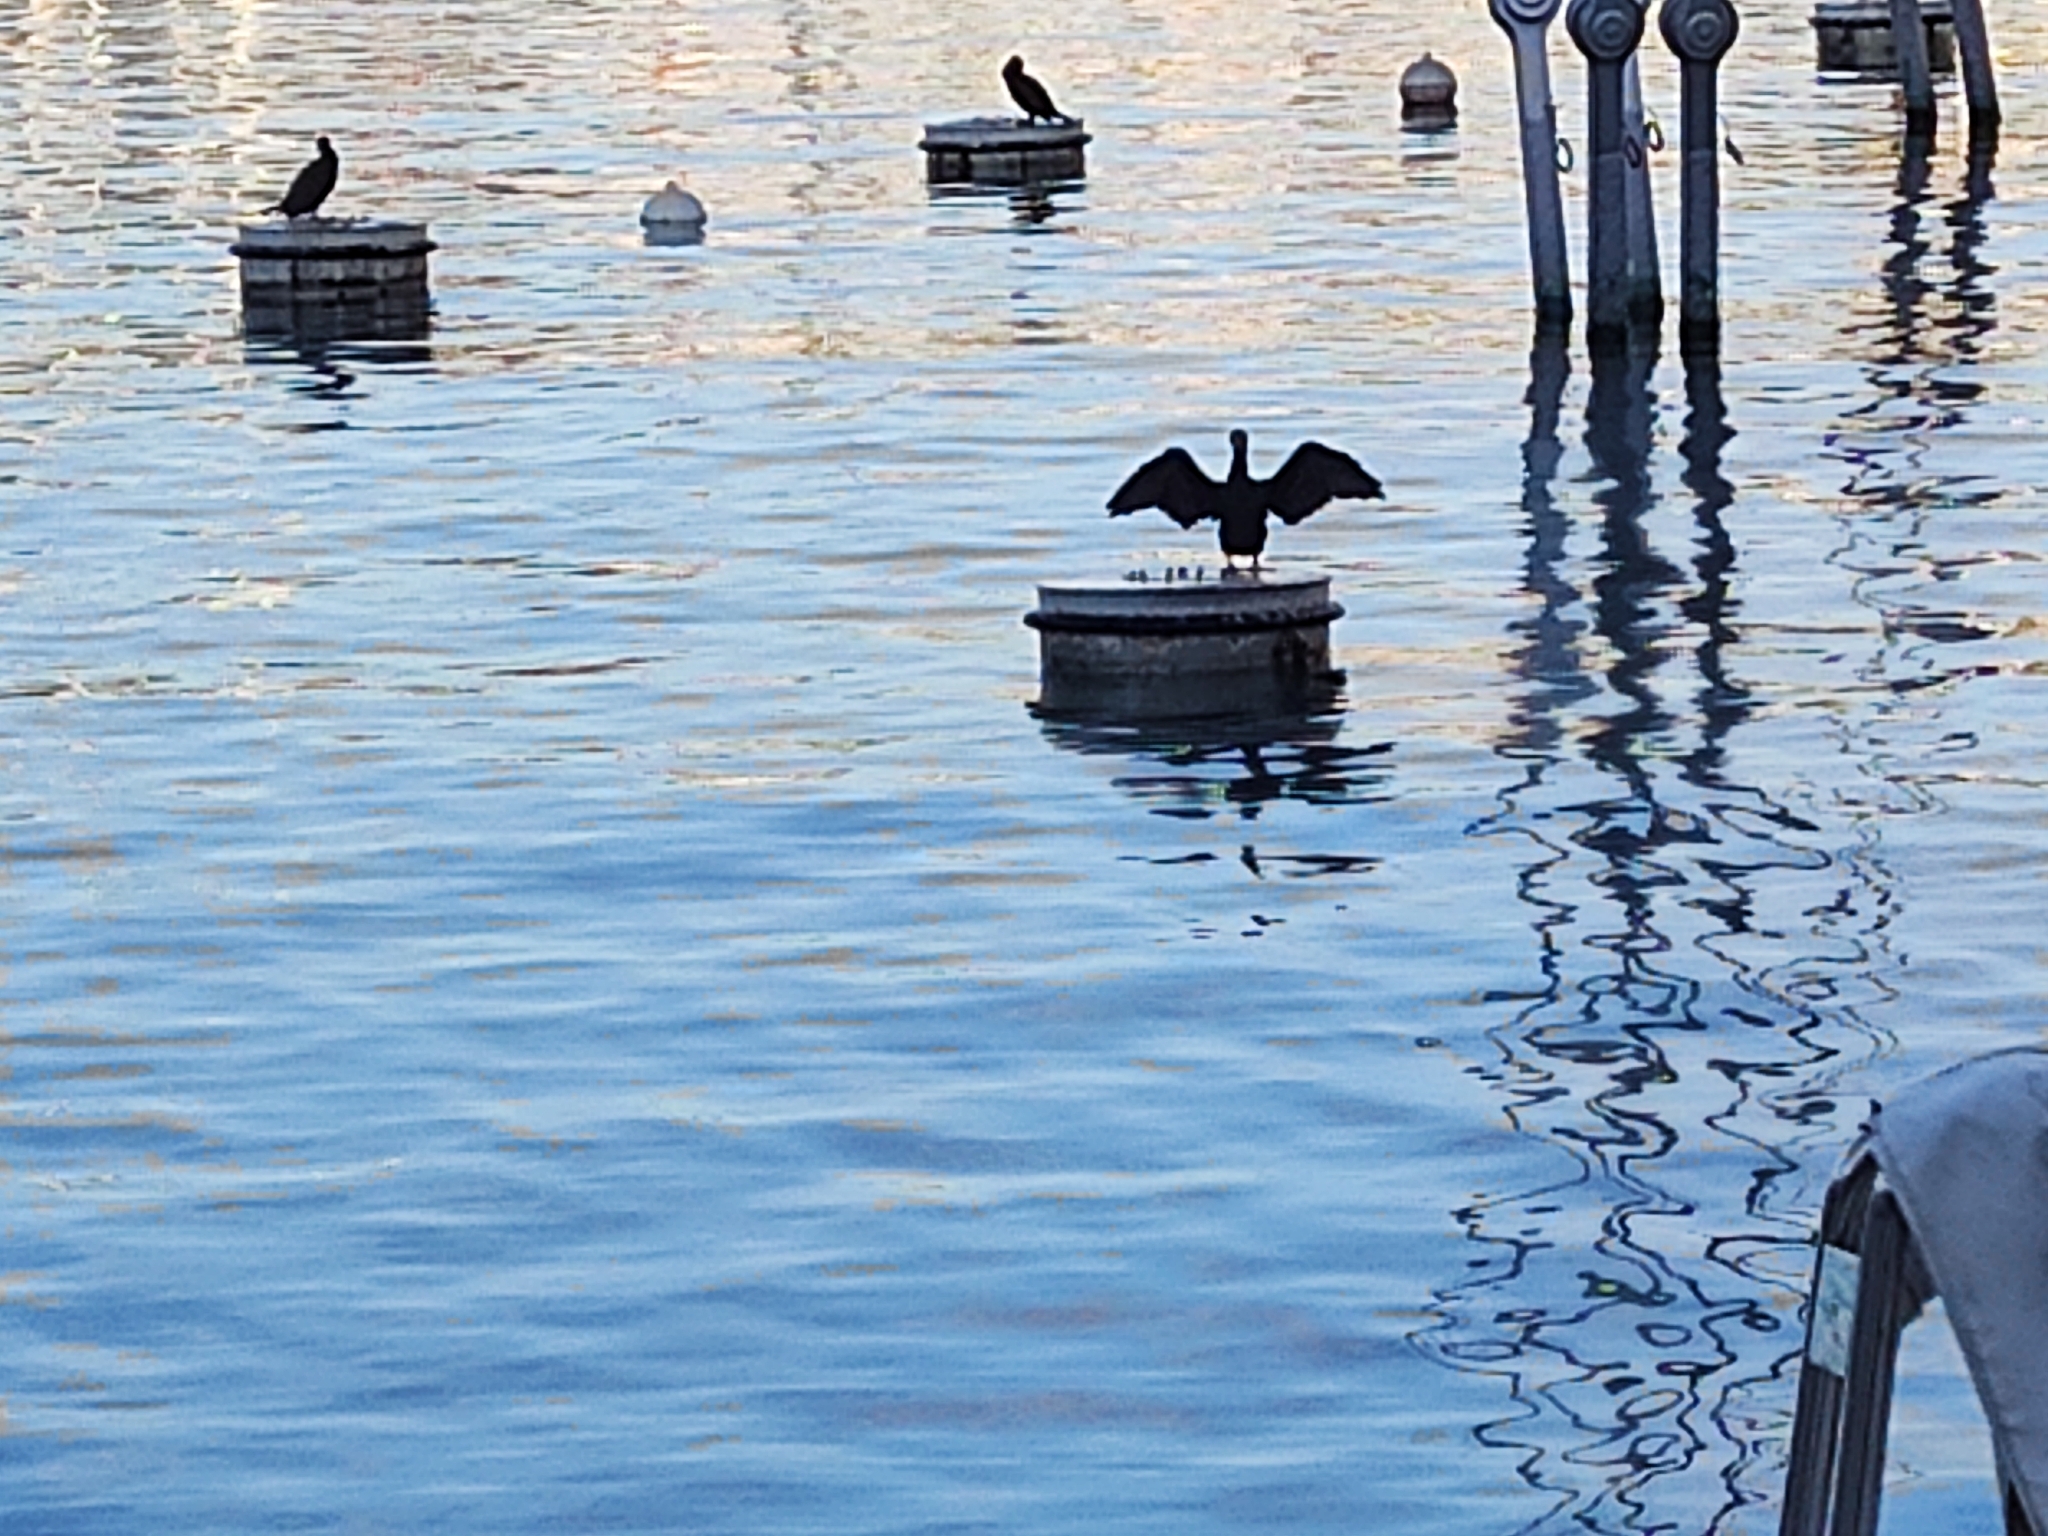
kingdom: Animalia
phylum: Chordata
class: Aves
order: Suliformes
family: Phalacrocoracidae
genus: Phalacrocorax
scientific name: Phalacrocorax carbo
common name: Great cormorant
